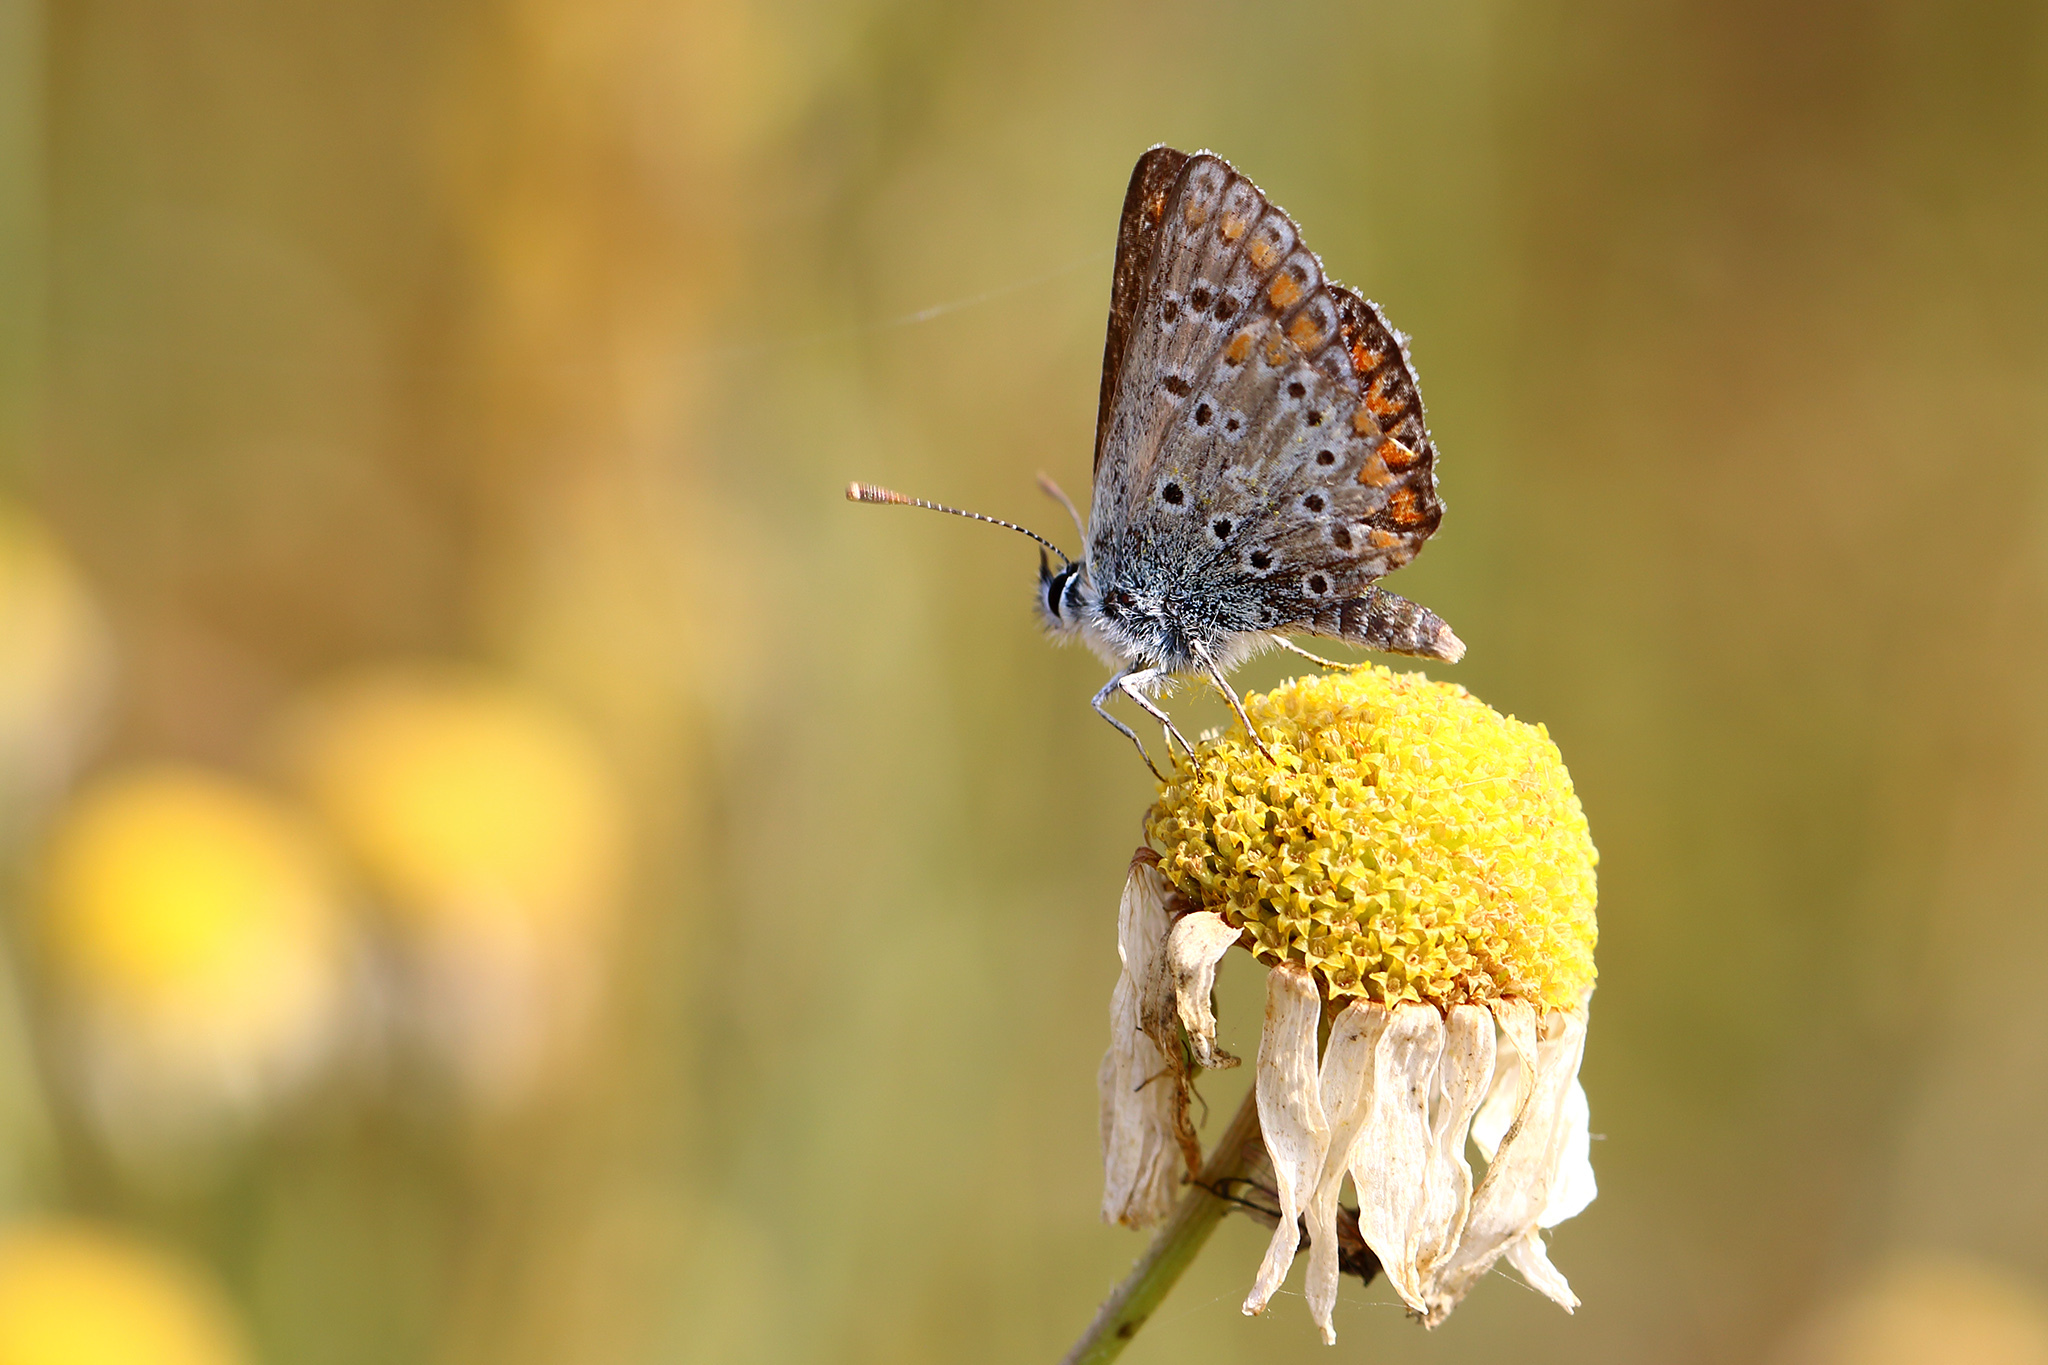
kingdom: Animalia
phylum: Arthropoda
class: Insecta
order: Lepidoptera
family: Lycaenidae
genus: Aricia
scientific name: Aricia agestis
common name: Brown argus
